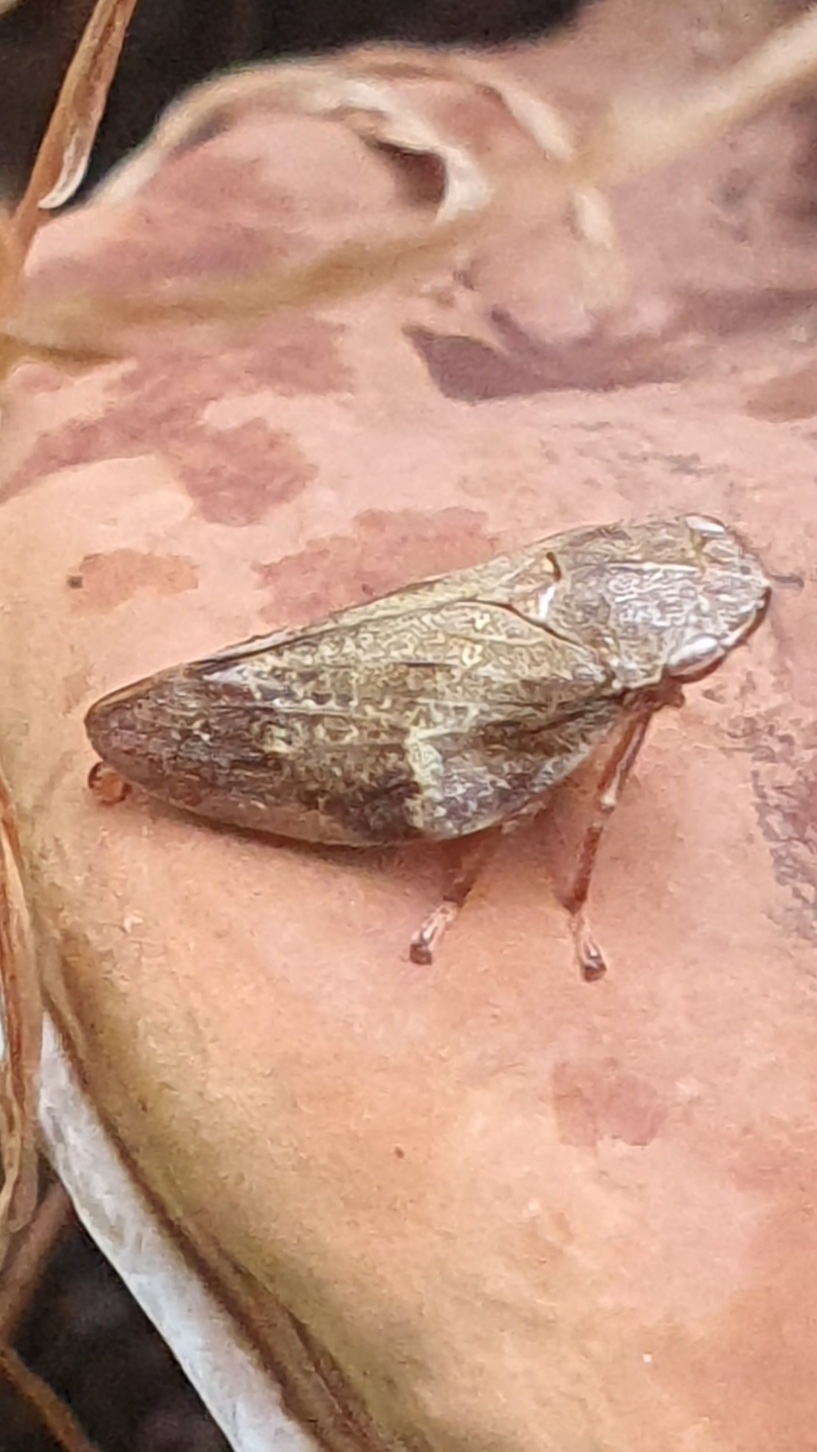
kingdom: Animalia
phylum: Arthropoda
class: Insecta
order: Hemiptera
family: Aphrophoridae
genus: Aphrophora
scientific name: Aphrophora alni
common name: European alder spittlebug
